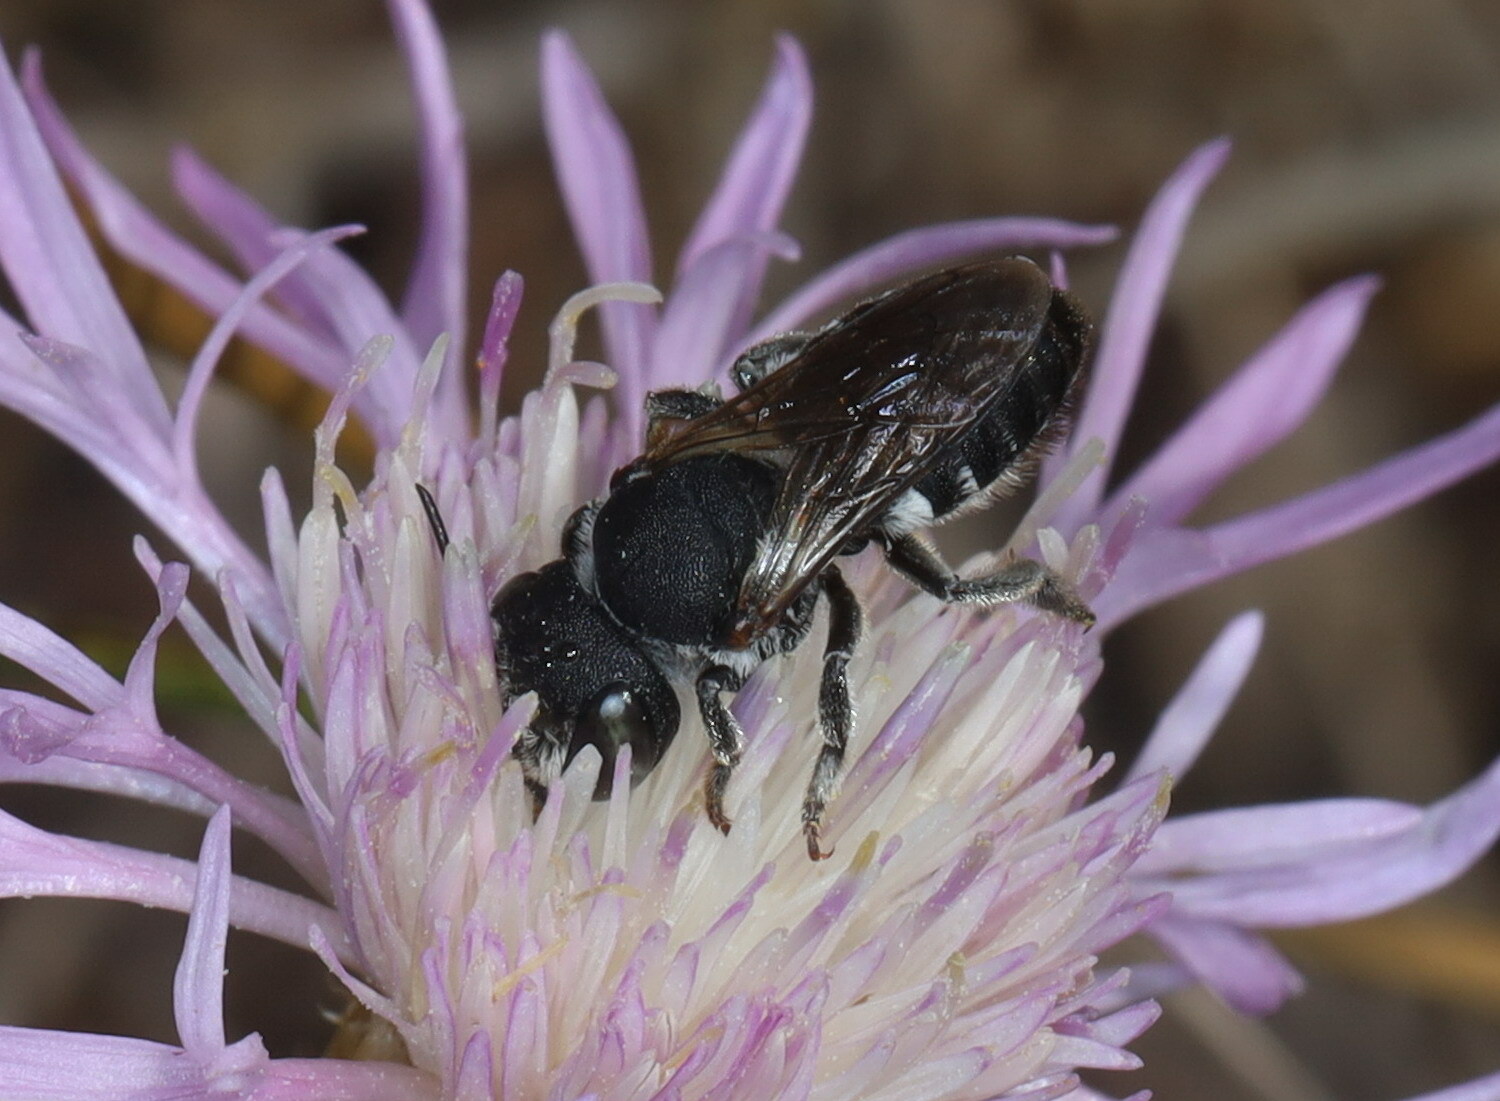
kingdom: Animalia
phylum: Arthropoda
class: Insecta
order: Hymenoptera
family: Megachilidae
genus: Megachile
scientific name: Megachile apicalis
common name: Apical leafcutter bee
